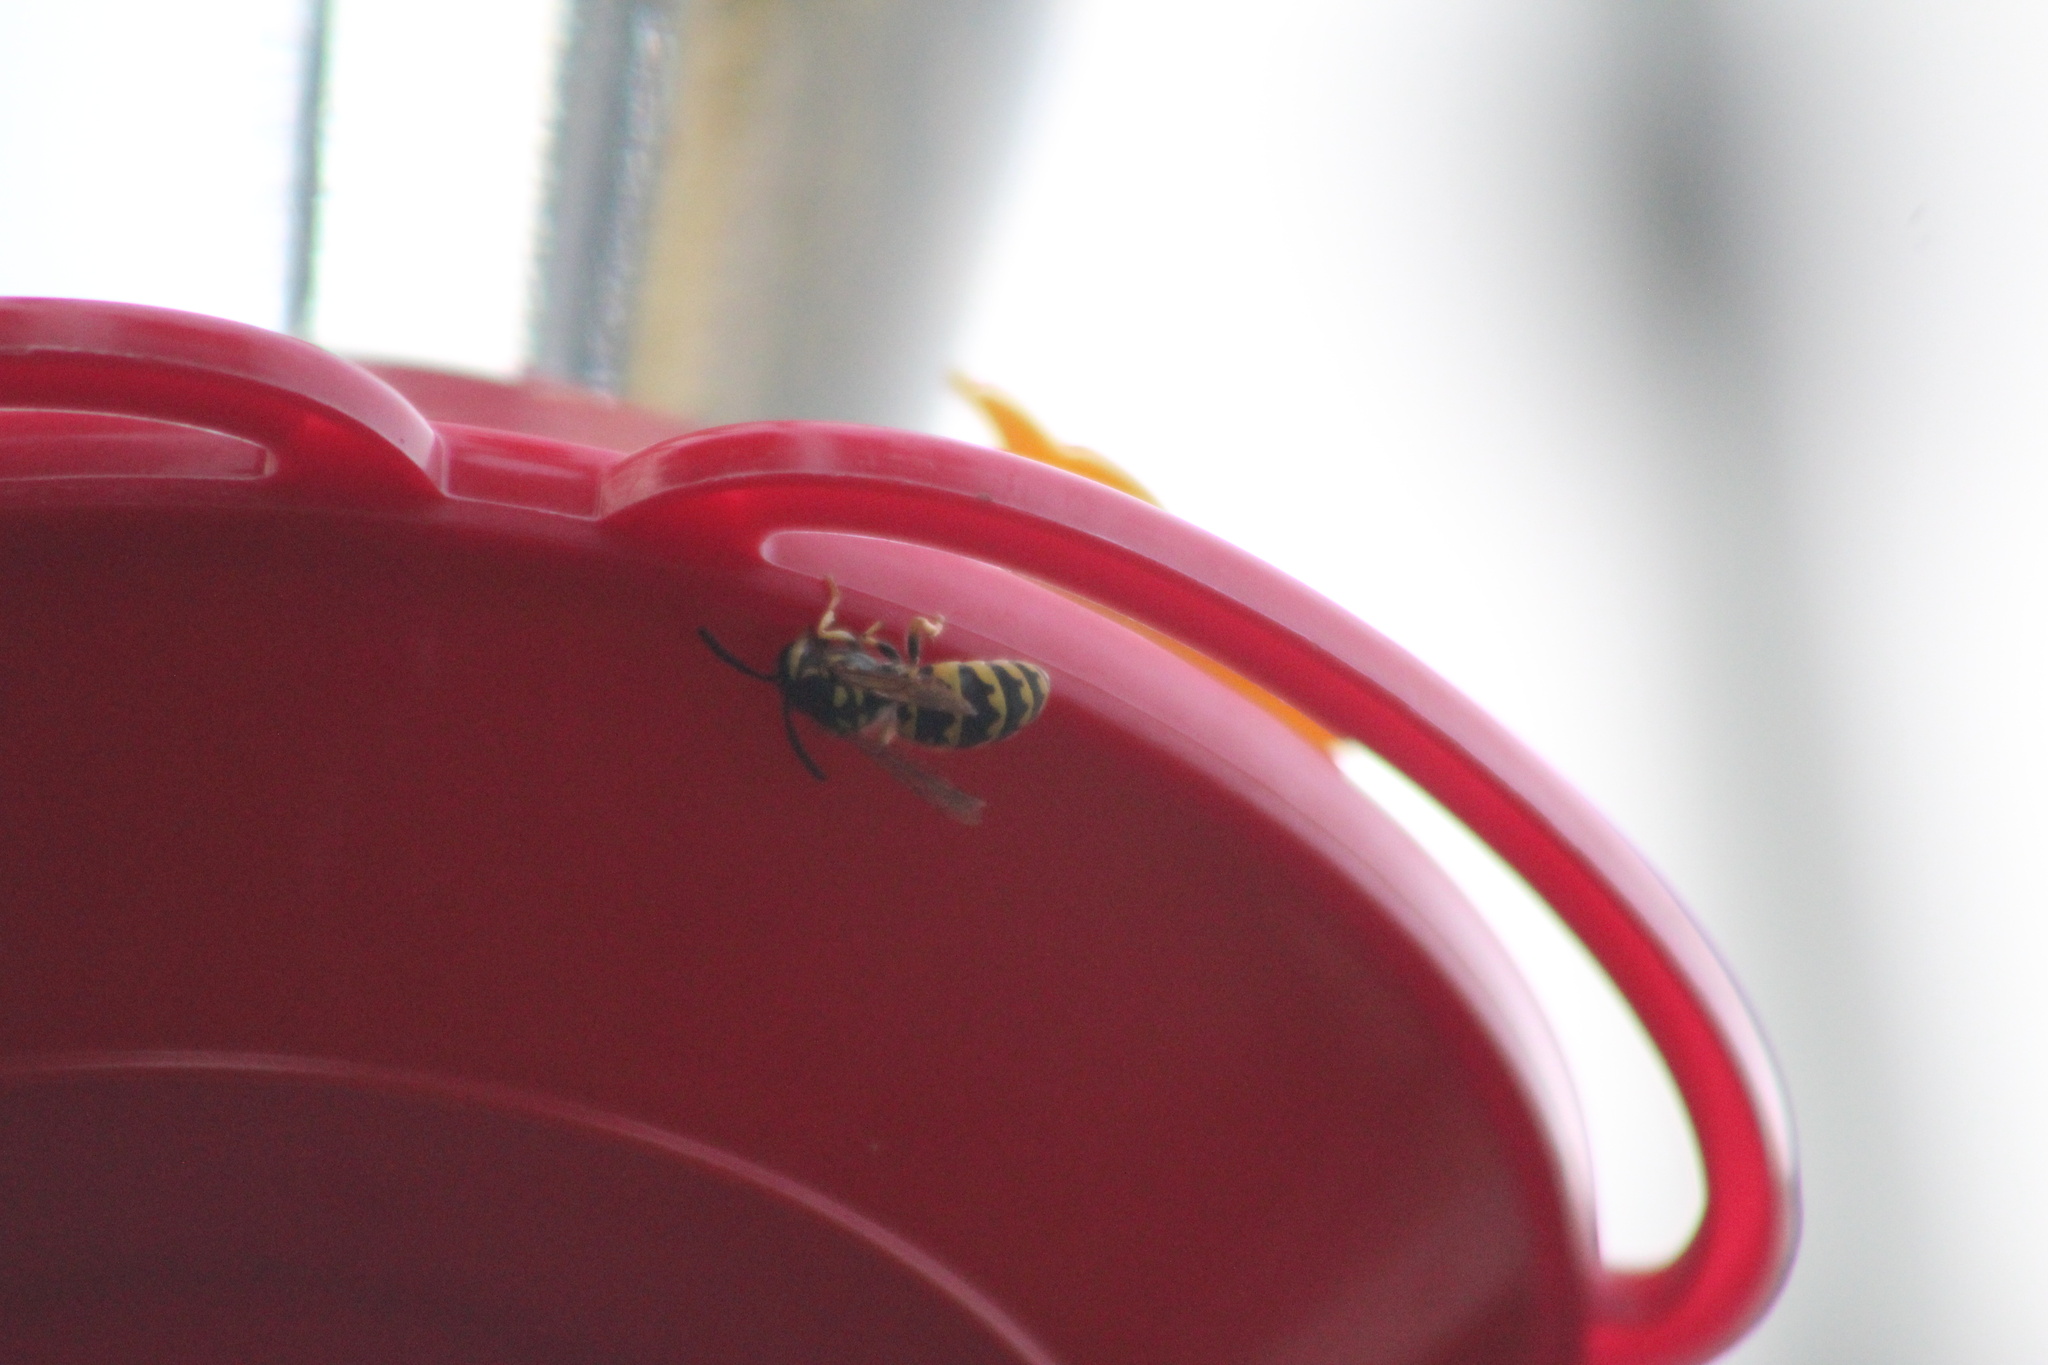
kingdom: Animalia
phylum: Arthropoda
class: Insecta
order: Hymenoptera
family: Vespidae
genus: Vespula
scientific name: Vespula germanica
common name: German wasp
